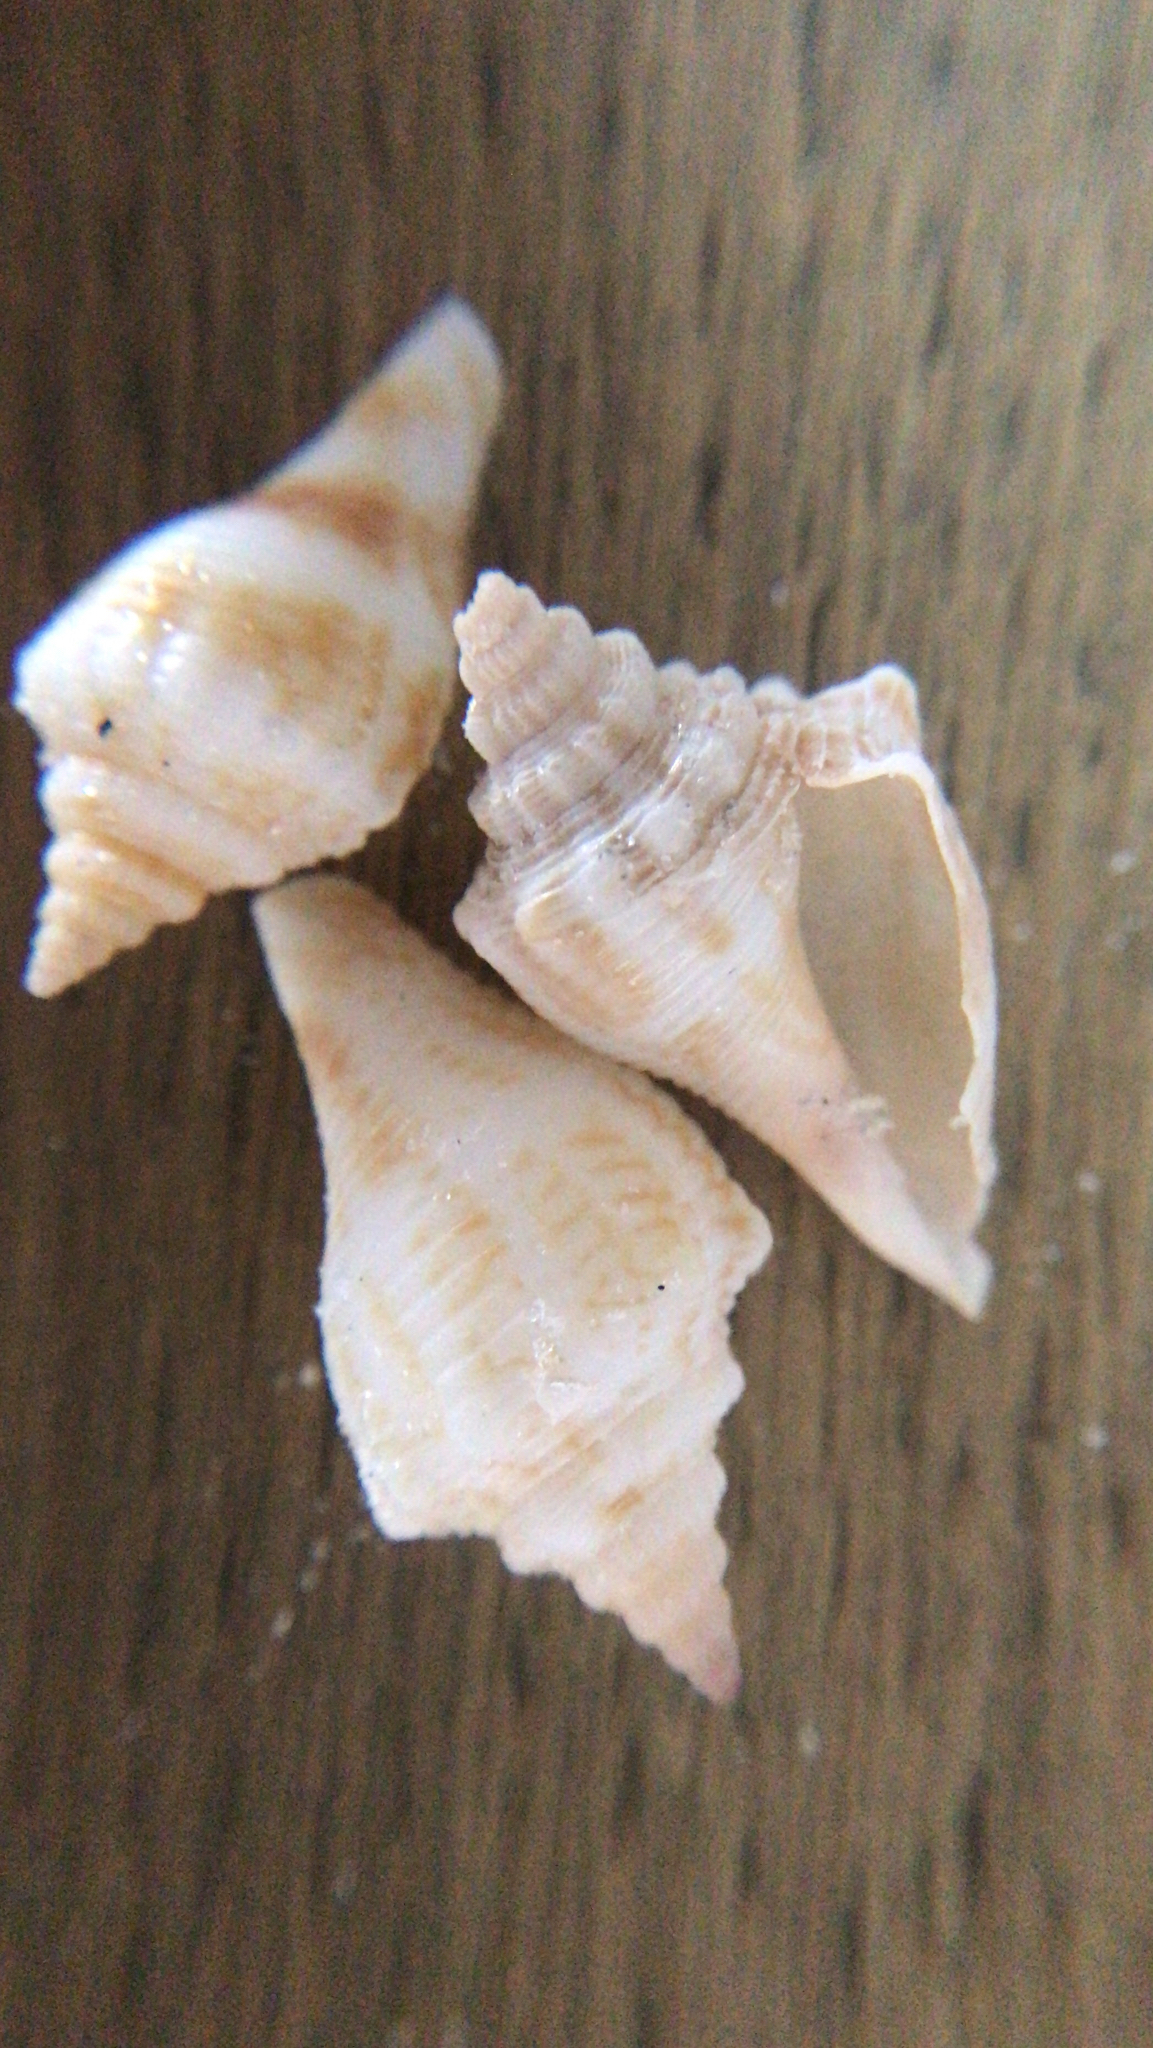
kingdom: Animalia
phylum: Mollusca
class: Gastropoda
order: Littorinimorpha
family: Strombidae
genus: Strombus
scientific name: Strombus alatus
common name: Florida fighting conch
